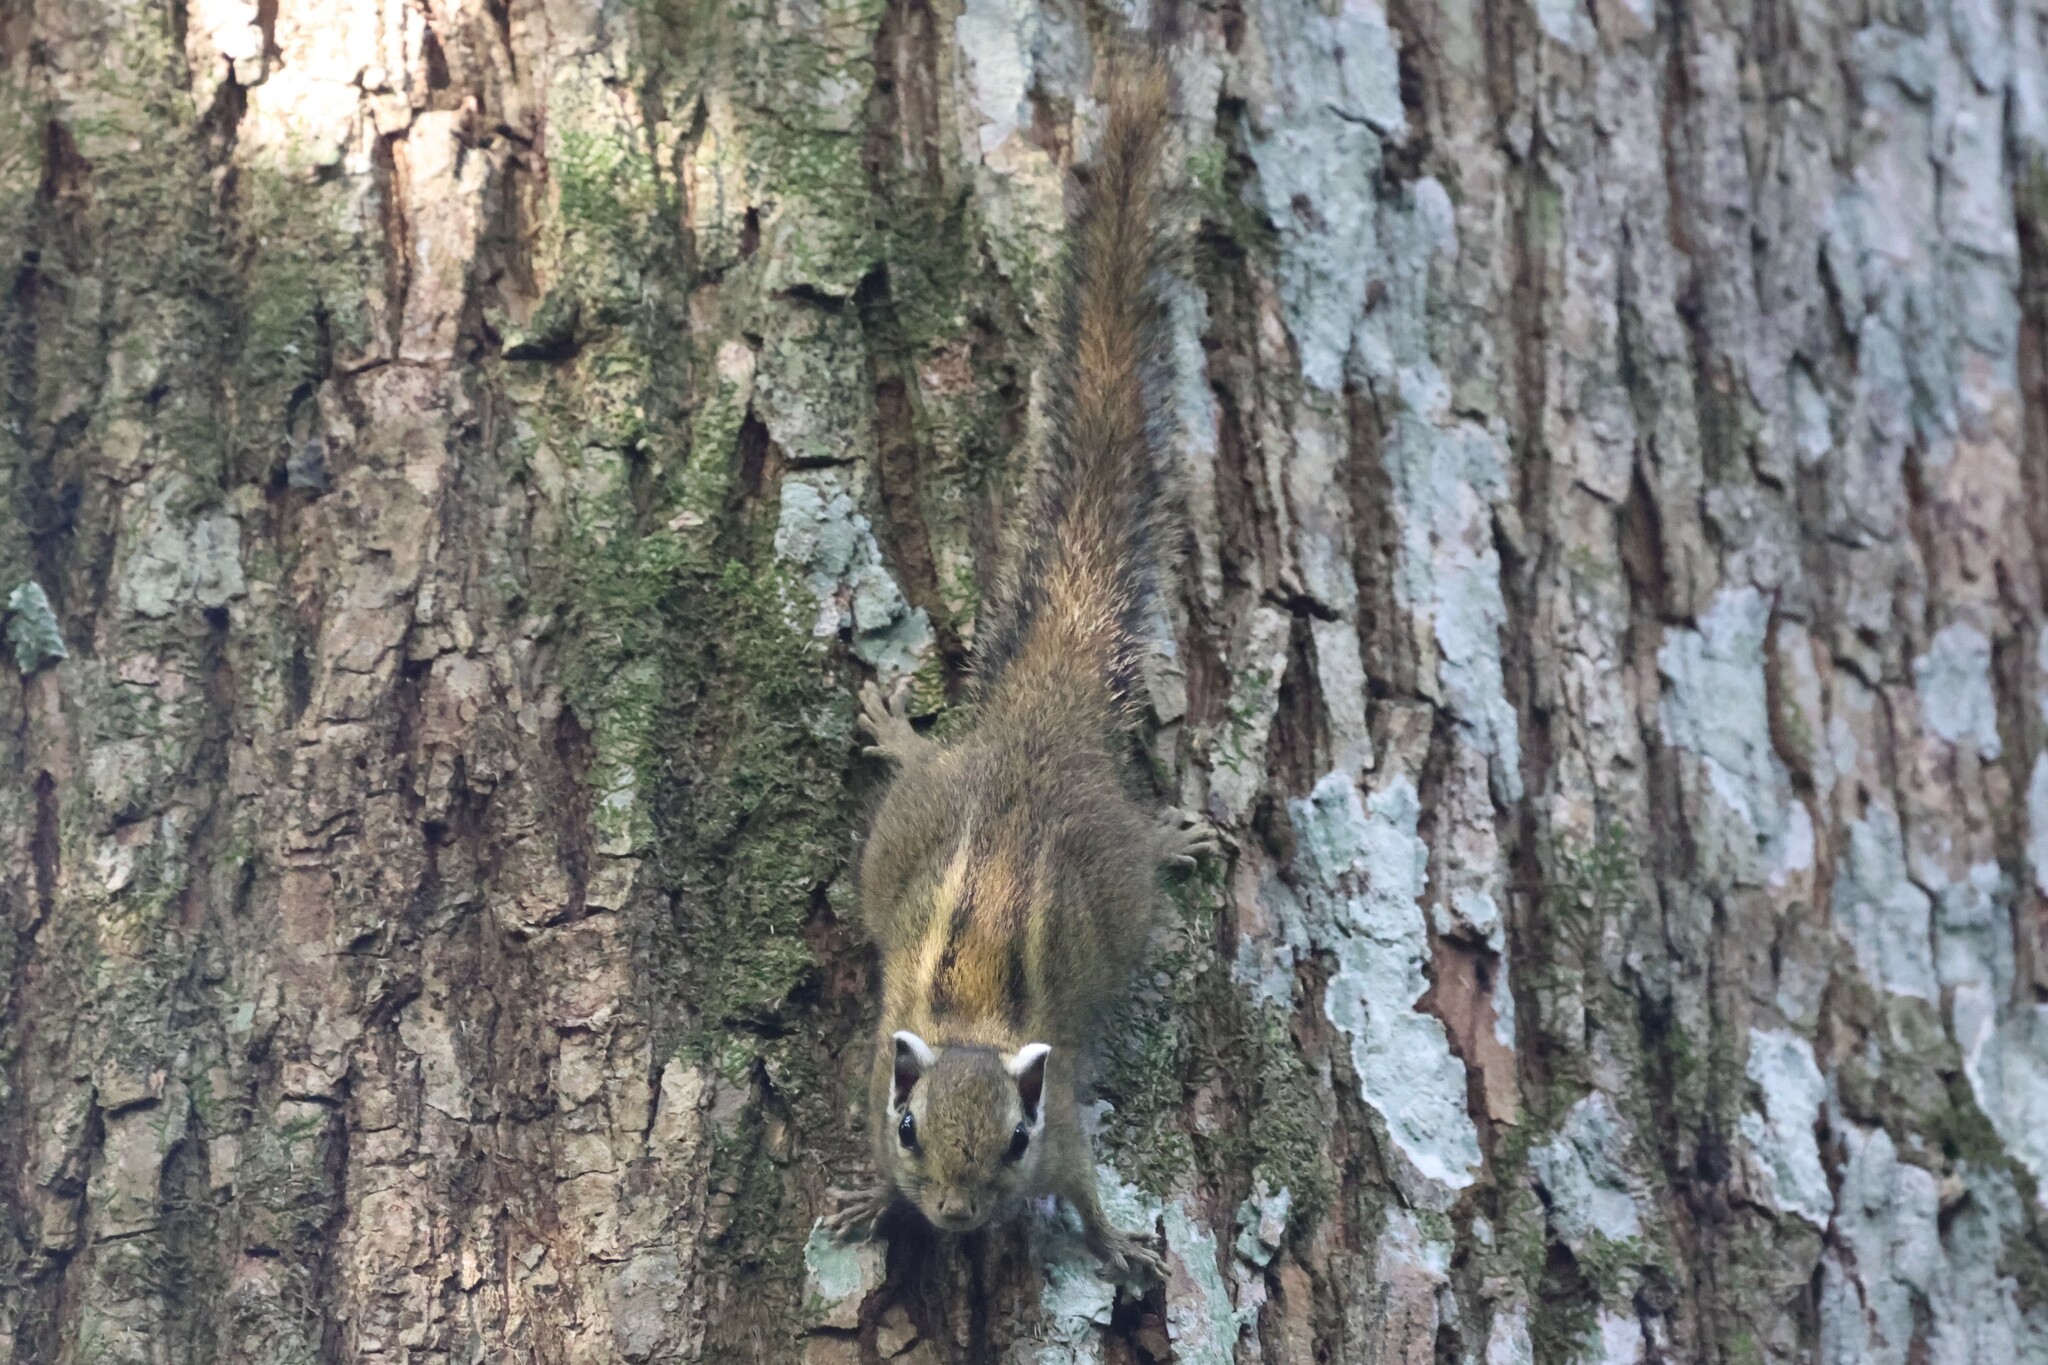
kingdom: Animalia
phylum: Chordata
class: Mammalia
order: Rodentia
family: Sciuridae
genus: Paraxerus
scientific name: Paraxerus alexandri
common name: Alexander's bush squirrel
